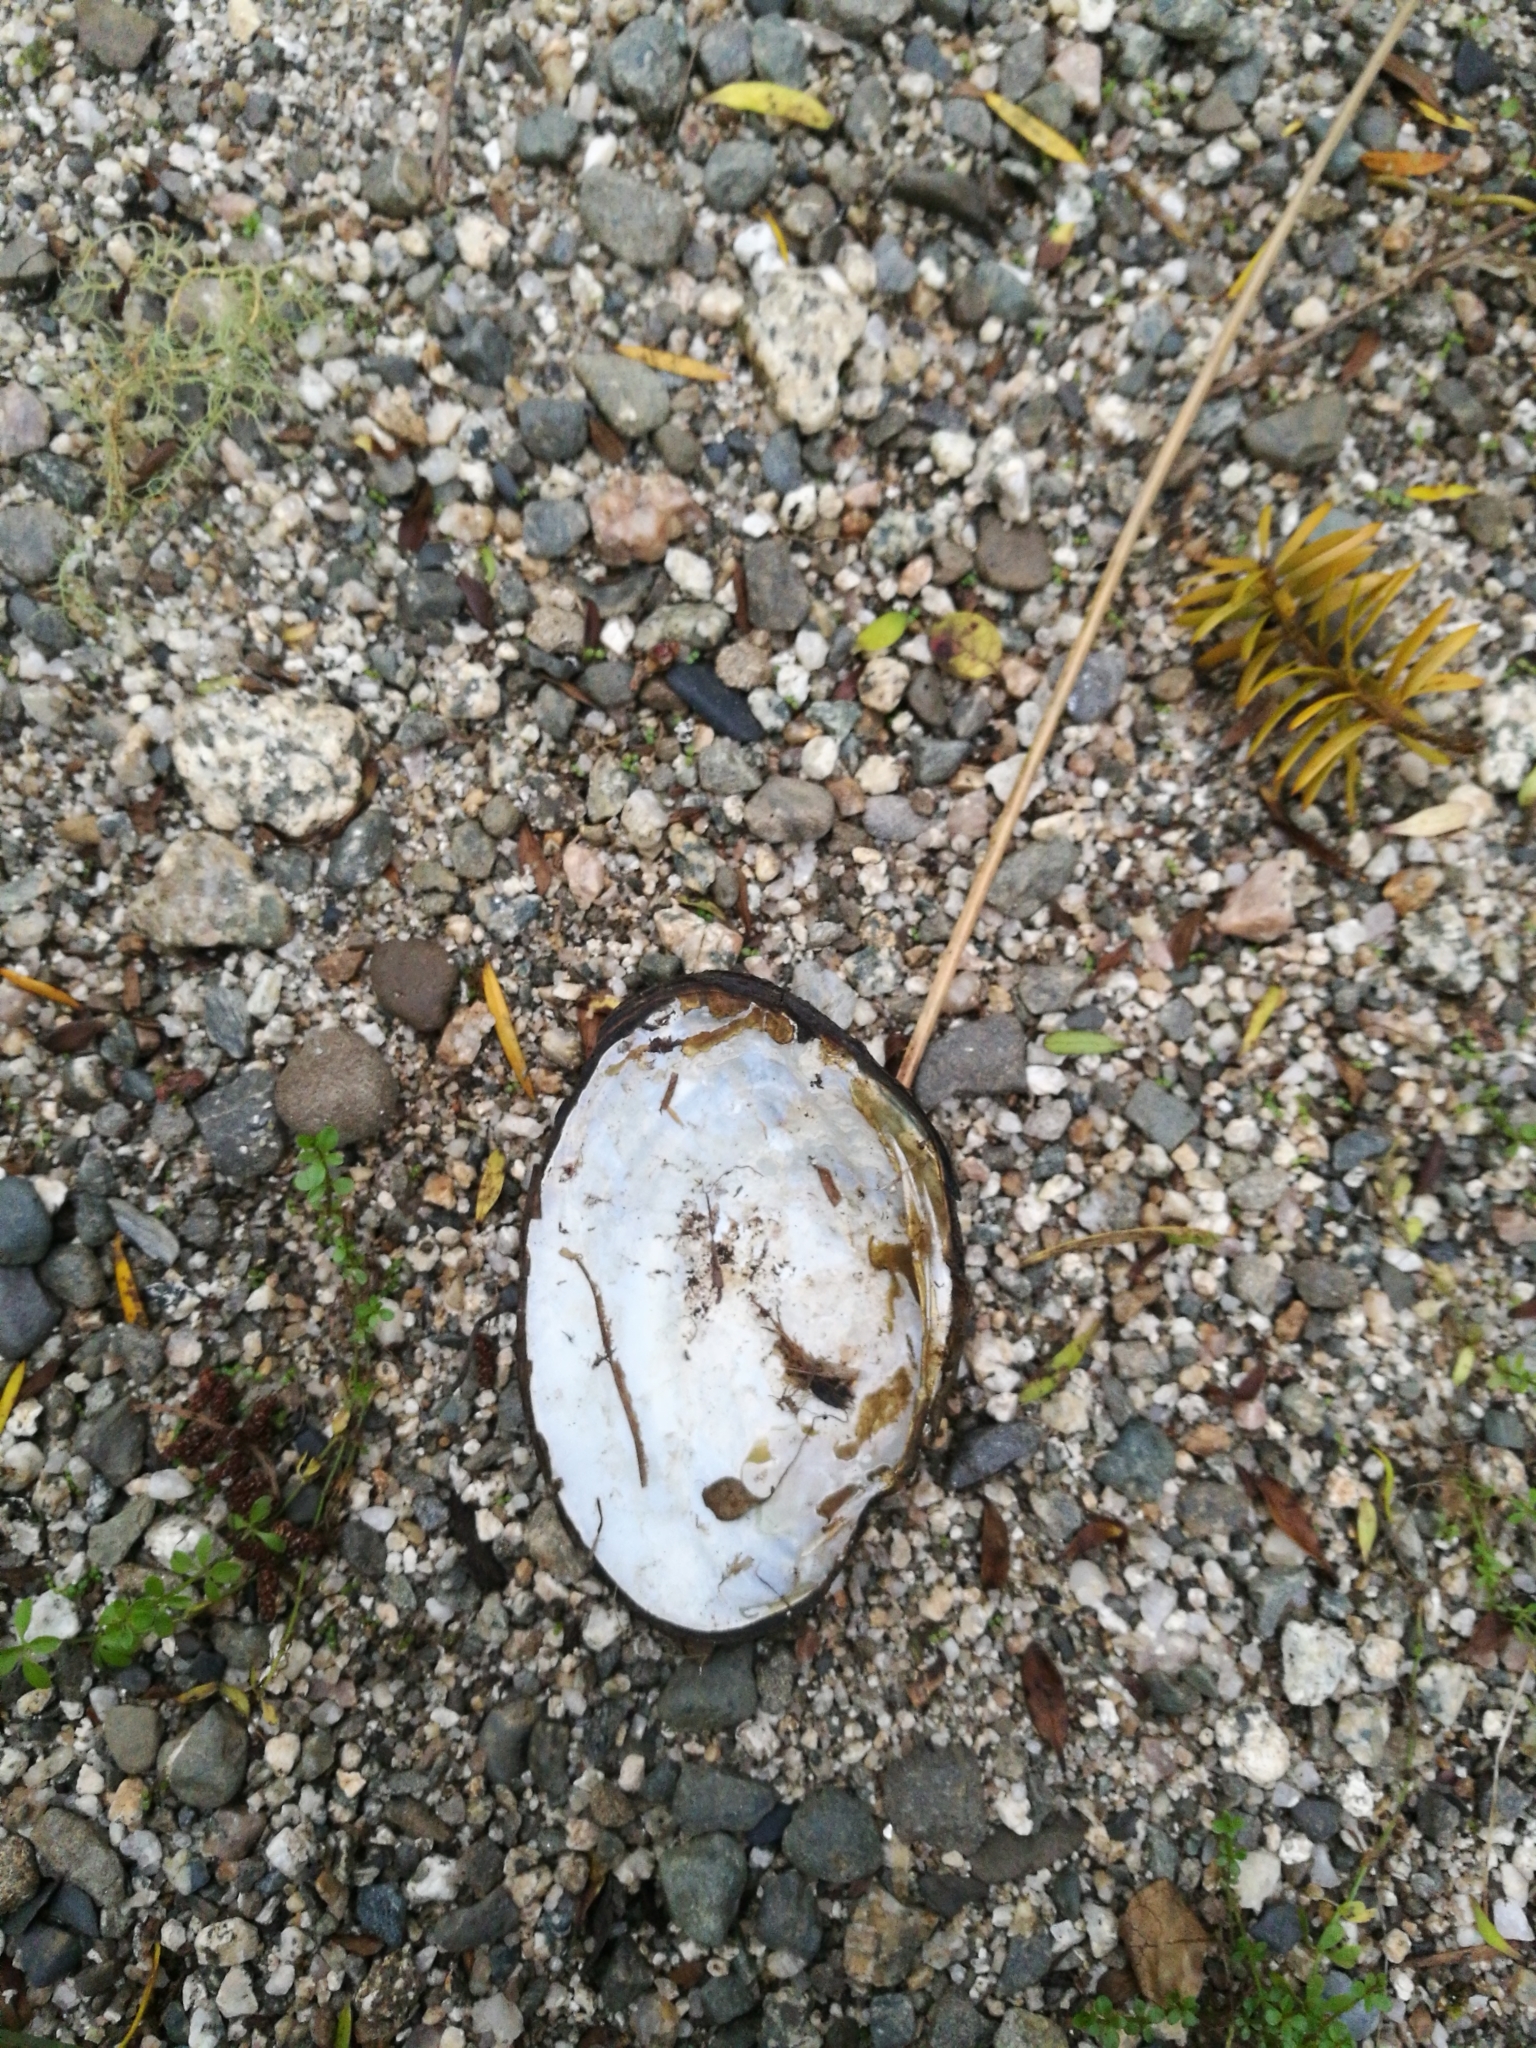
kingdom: Animalia
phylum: Mollusca
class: Bivalvia
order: Unionida
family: Hyriidae
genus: Echyridella
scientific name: Echyridella menziesii
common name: New zealand freshwater mussel
